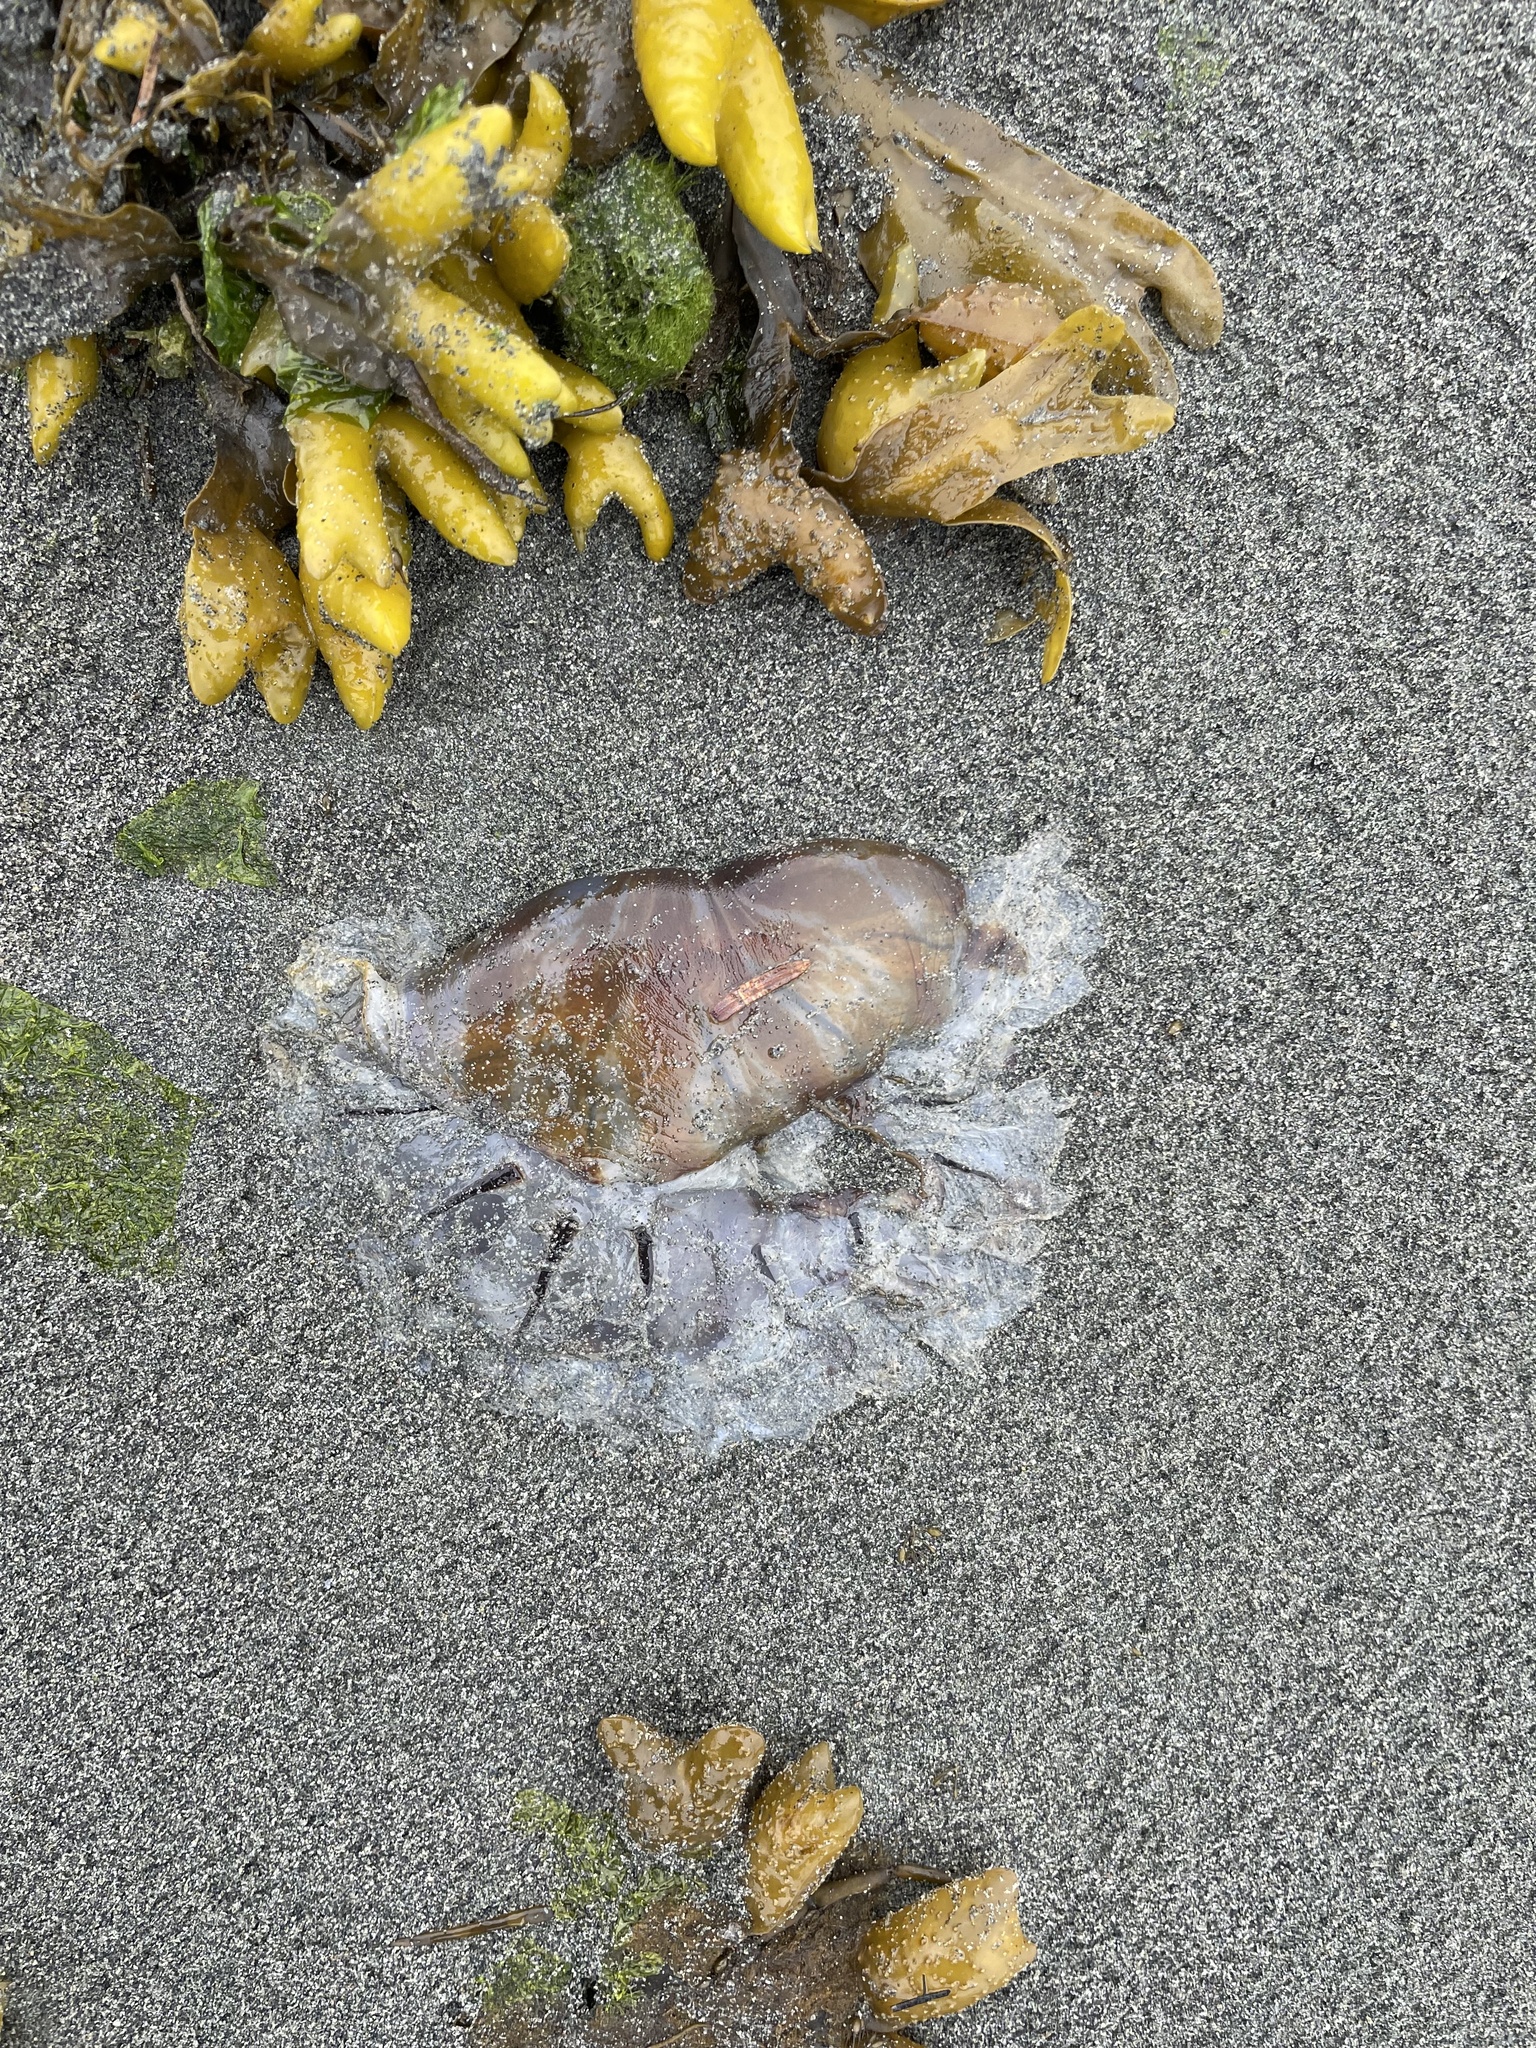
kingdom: Animalia
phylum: Cnidaria
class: Scyphozoa
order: Semaeostomeae
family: Pelagiidae
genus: Chrysaora
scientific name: Chrysaora melanaster
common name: Northern sea nettle
